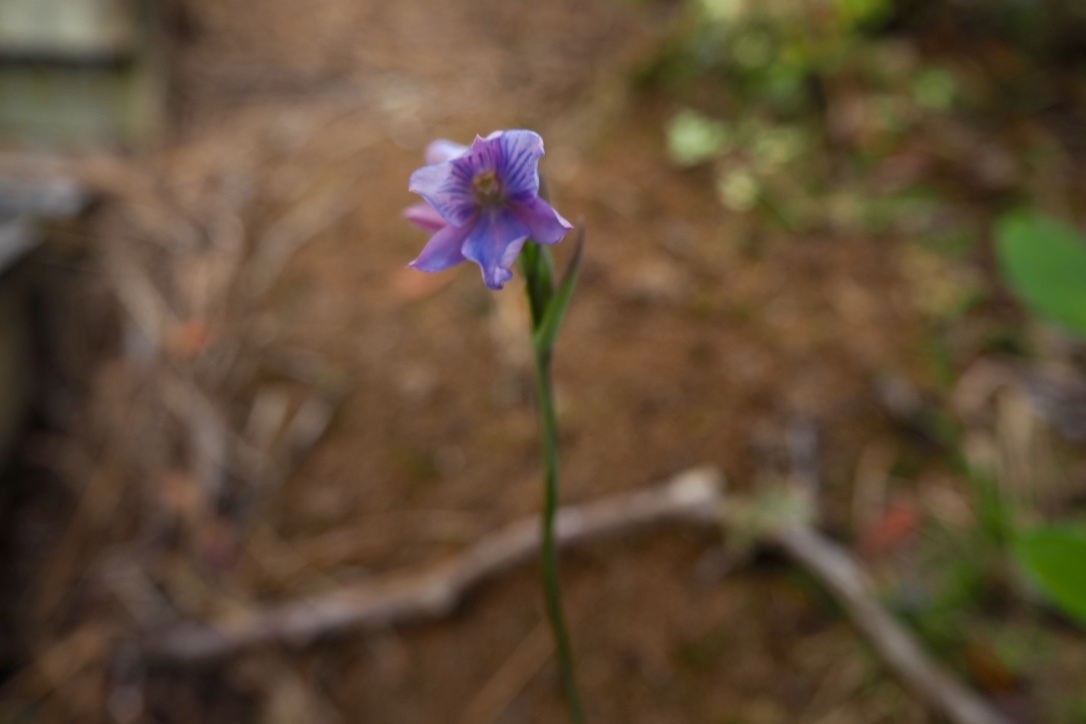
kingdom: Plantae
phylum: Tracheophyta
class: Liliopsida
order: Asparagales
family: Orchidaceae
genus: Thelymitra
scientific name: Thelymitra cyanea
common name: Blue sun-orchid
